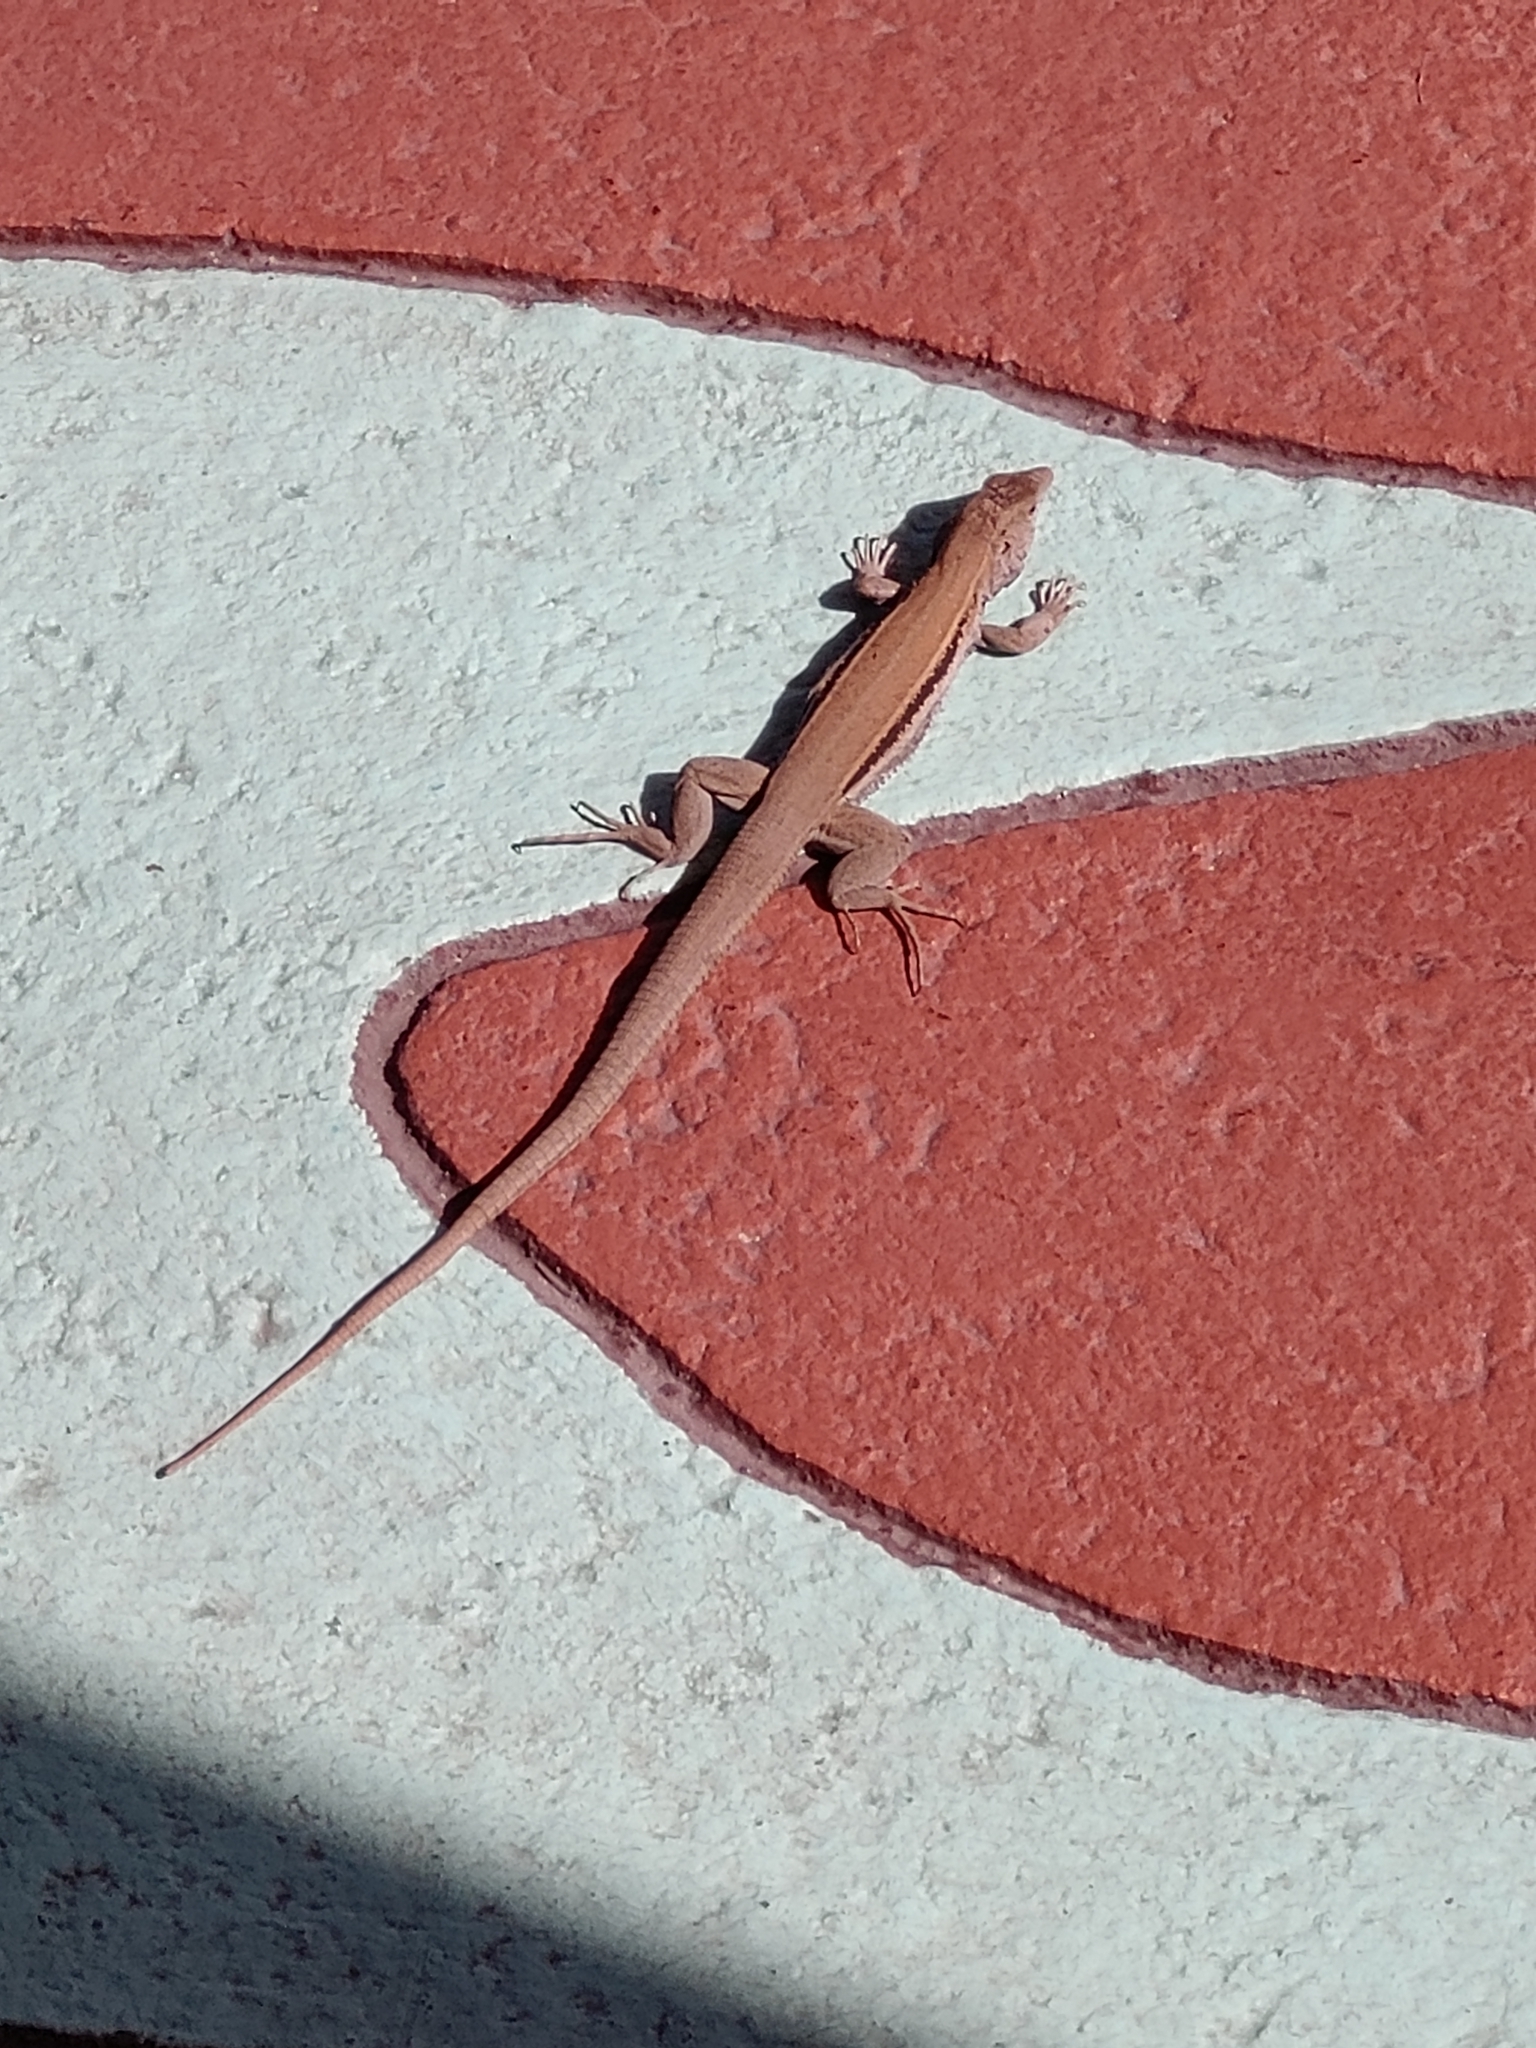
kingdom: Animalia
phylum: Chordata
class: Squamata
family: Teiidae
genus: Pholidoscelis
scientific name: Pholidoscelis auberi
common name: Auber's ameiva
